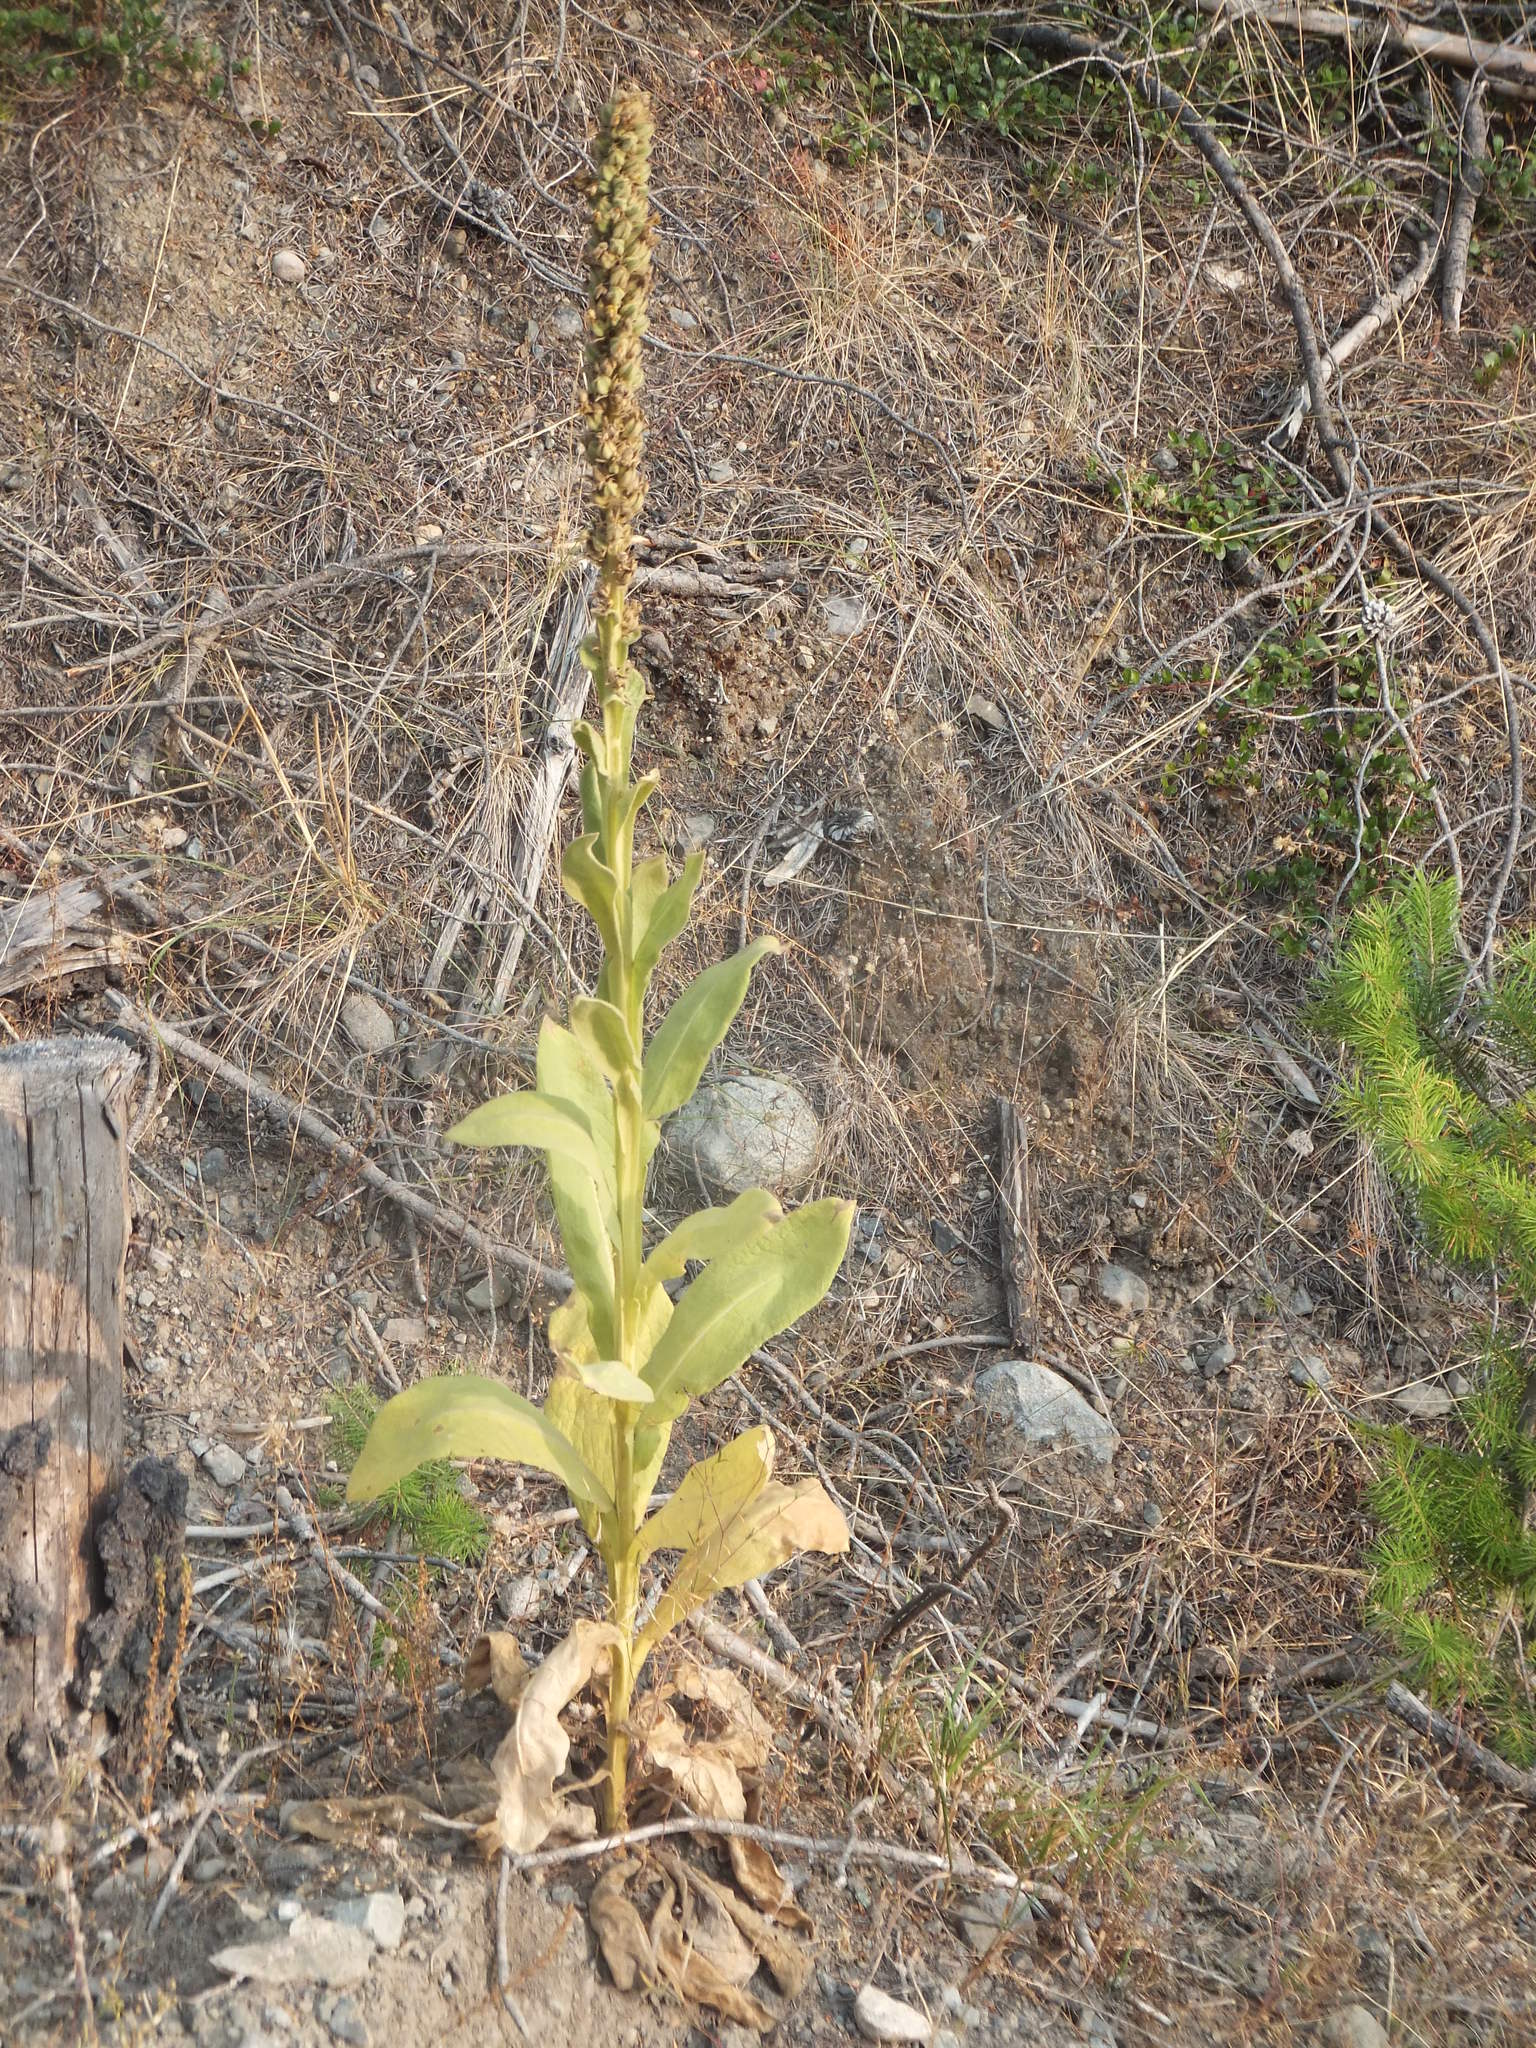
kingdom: Plantae
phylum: Tracheophyta
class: Magnoliopsida
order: Lamiales
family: Scrophulariaceae
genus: Verbascum
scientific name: Verbascum thapsus
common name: Common mullein
